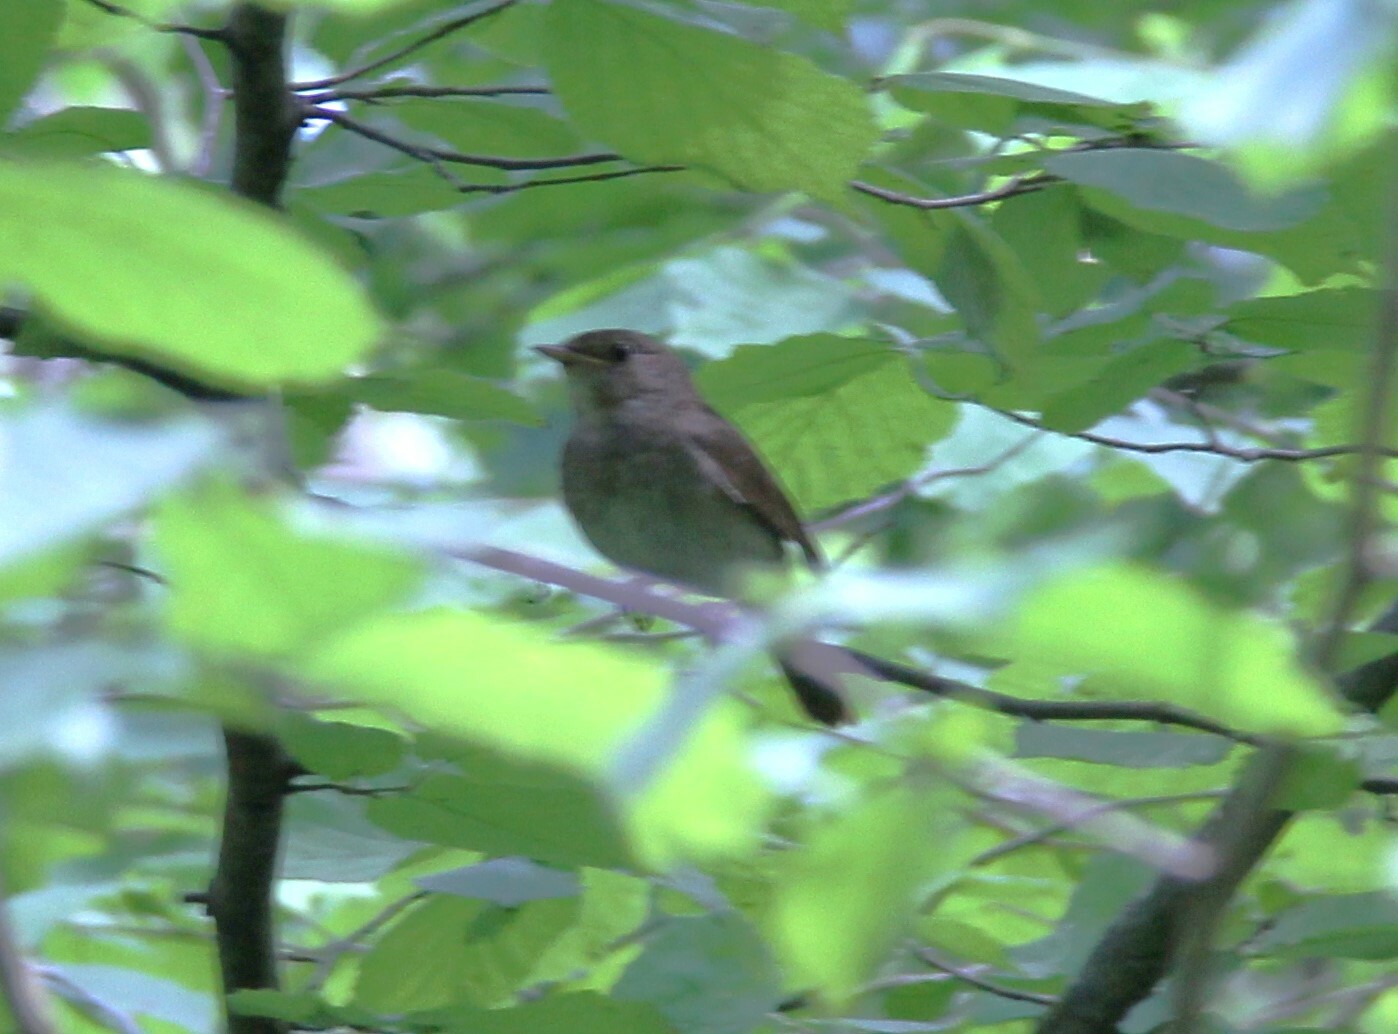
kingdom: Animalia
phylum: Chordata
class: Aves
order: Passeriformes
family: Muscicapidae
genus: Luscinia
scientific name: Luscinia luscinia
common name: Thrush nightingale
